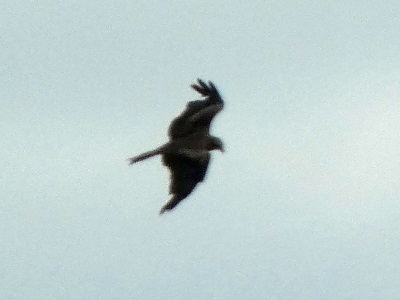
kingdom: Animalia
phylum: Chordata
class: Aves
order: Accipitriformes
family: Accipitridae
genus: Milvus
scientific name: Milvus migrans
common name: Black kite
